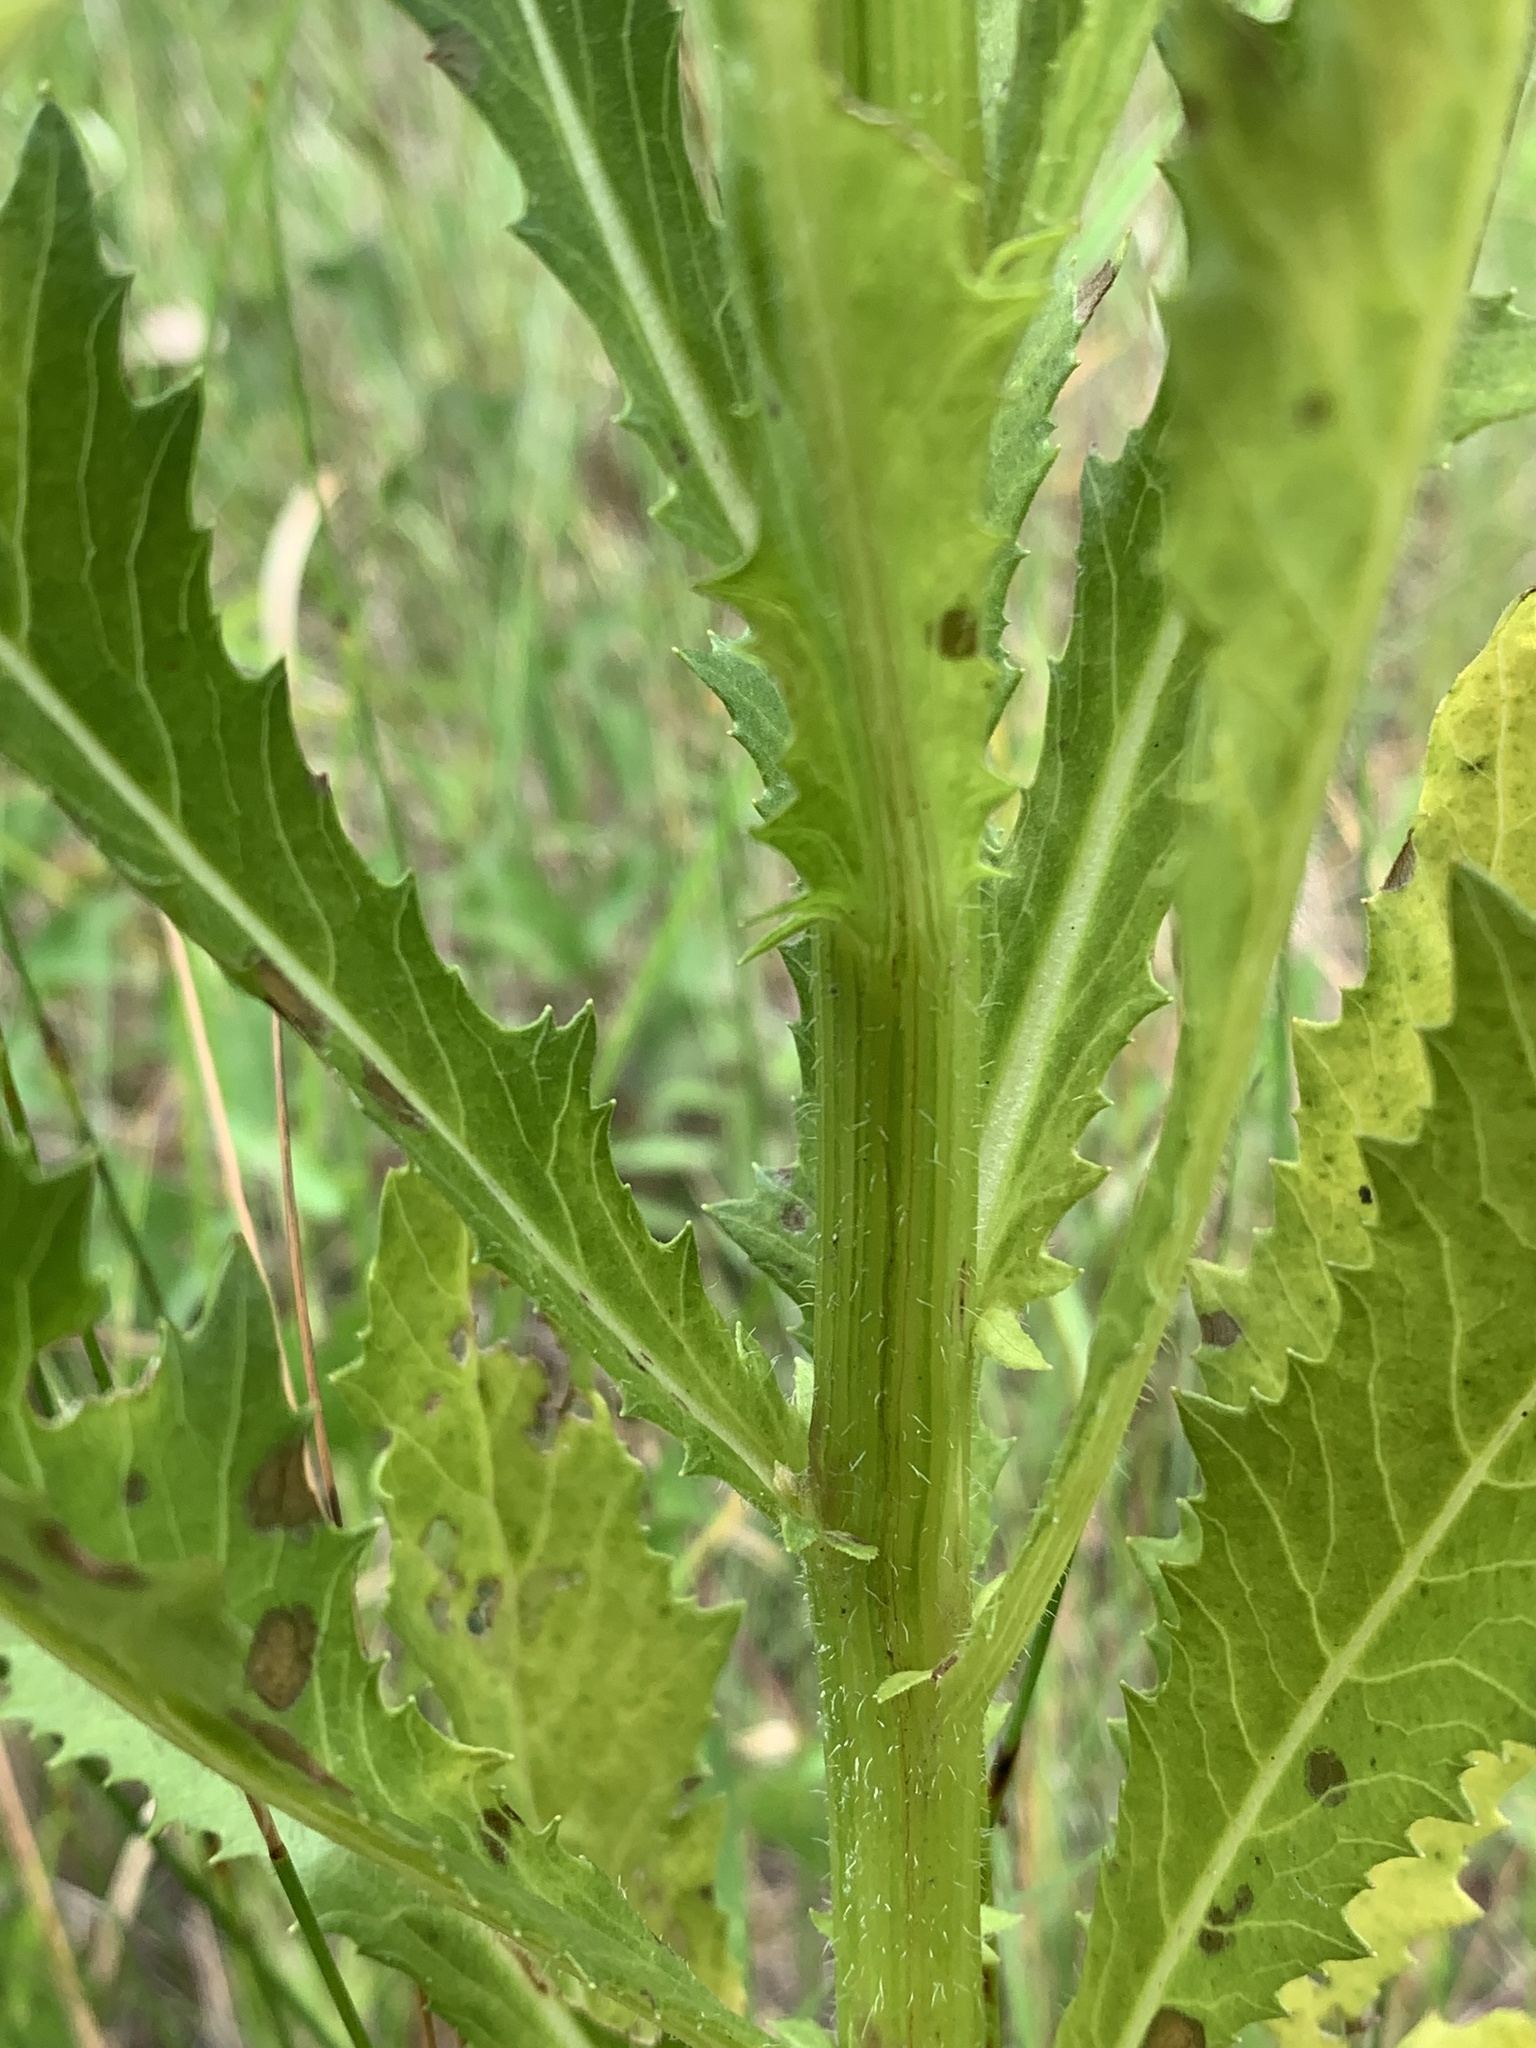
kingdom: Plantae
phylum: Tracheophyta
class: Magnoliopsida
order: Asterales
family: Asteraceae
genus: Erechtites
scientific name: Erechtites hieraciifolius
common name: American burnweed
